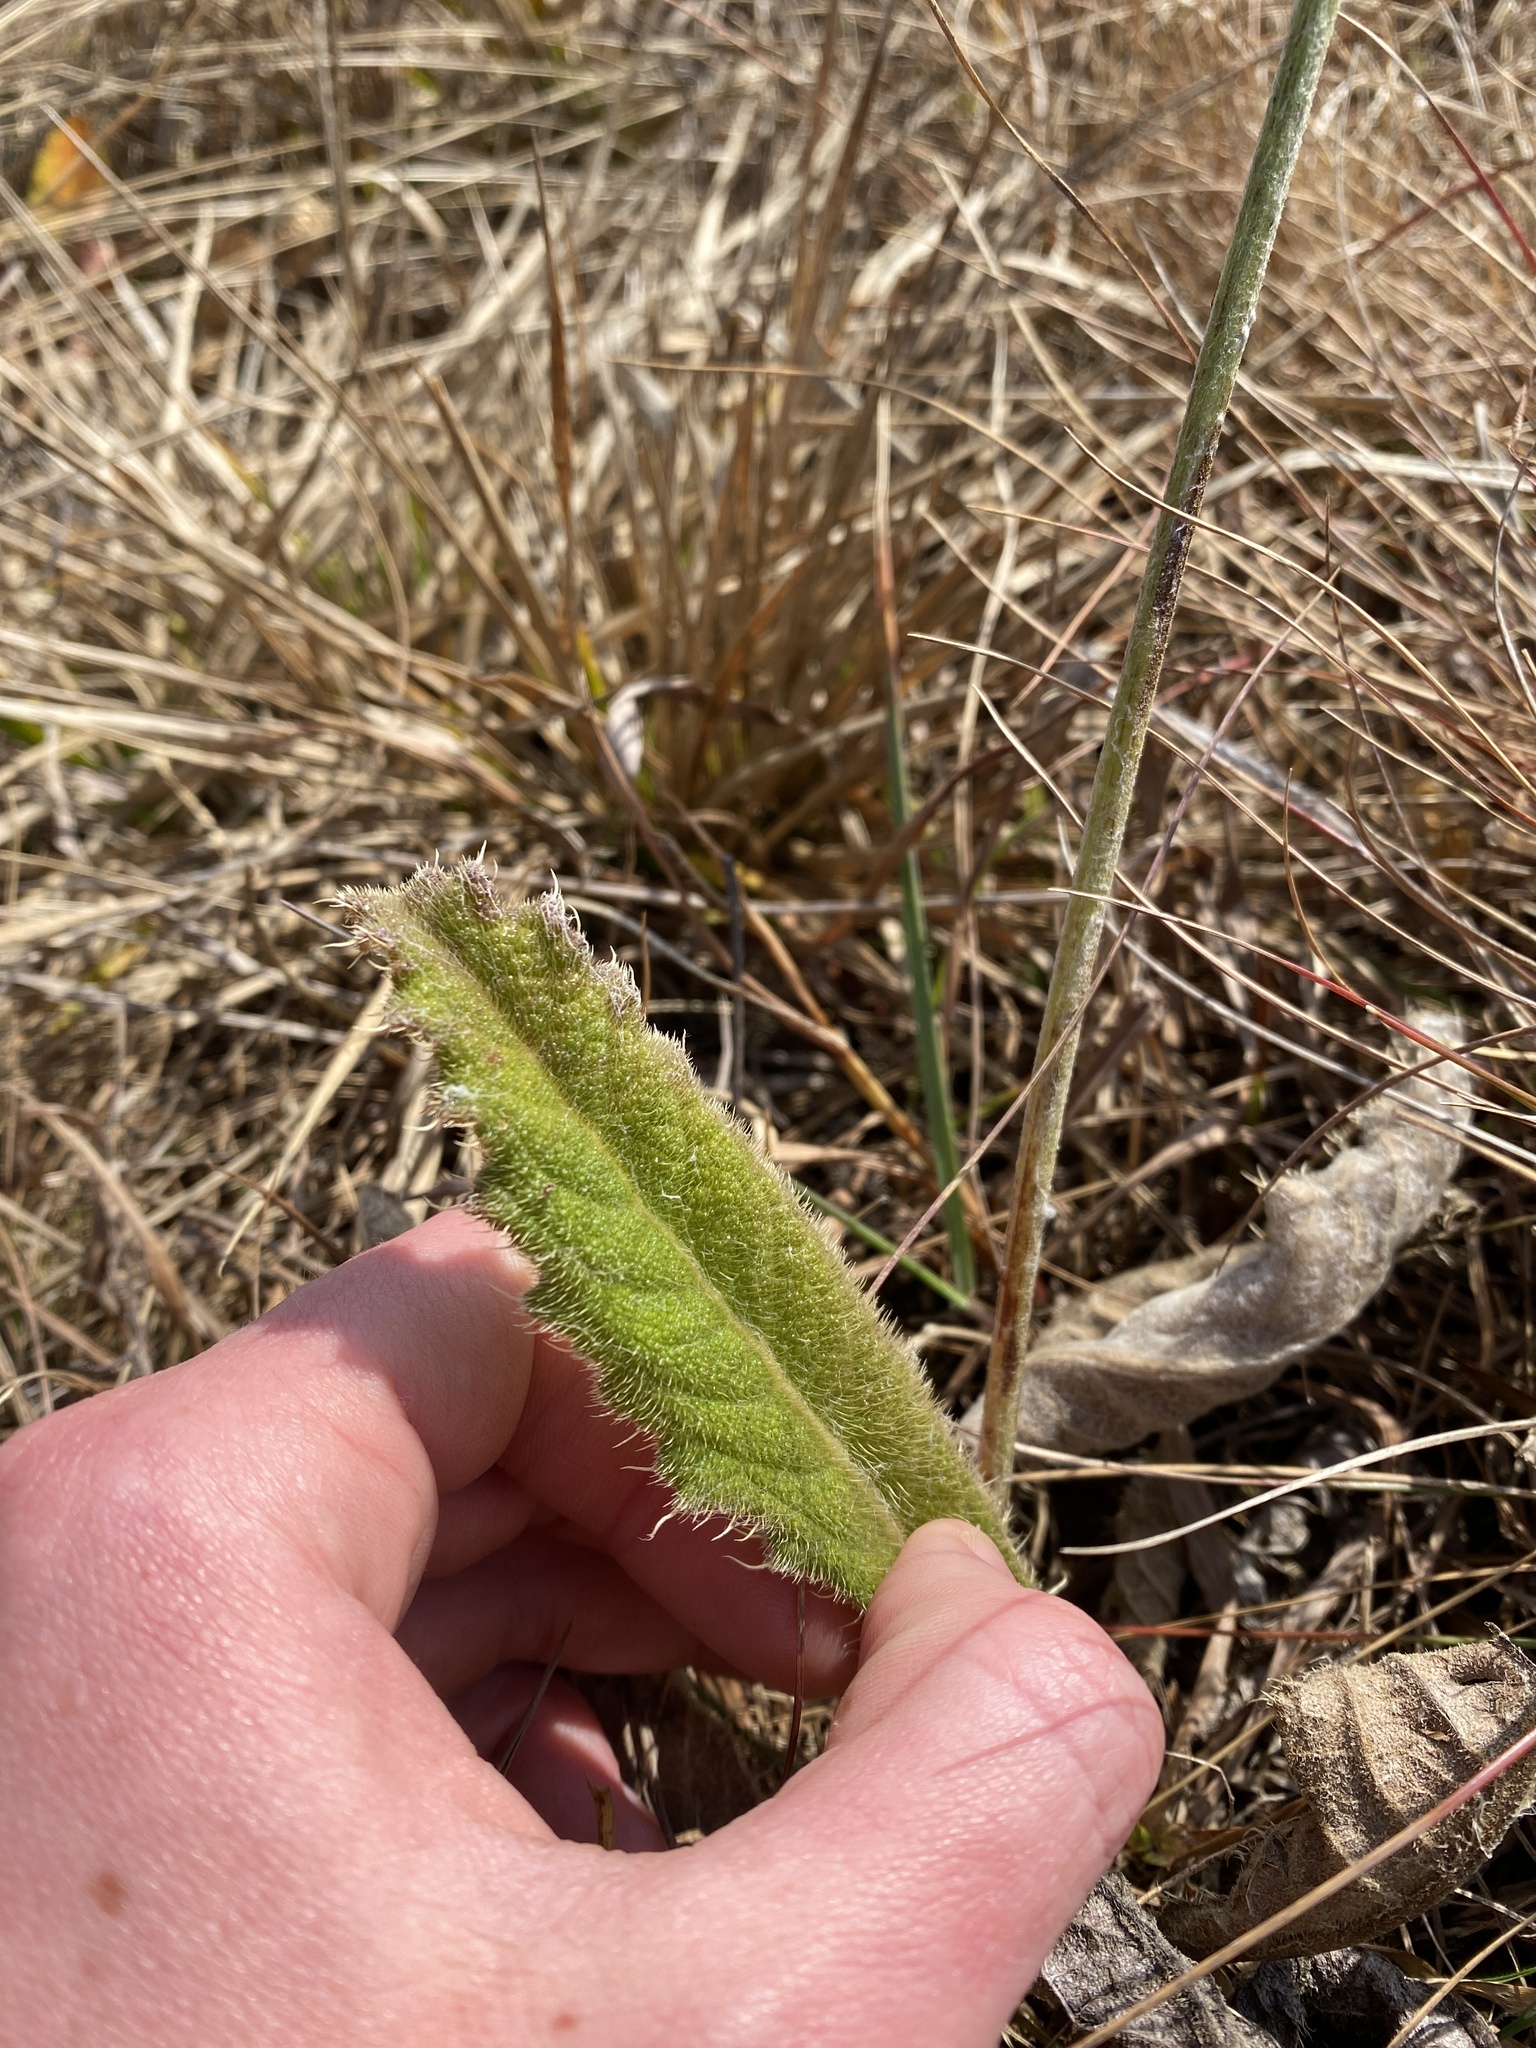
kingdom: Plantae
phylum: Tracheophyta
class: Magnoliopsida
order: Asterales
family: Asteraceae
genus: Berkheya
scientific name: Berkheya setifera
